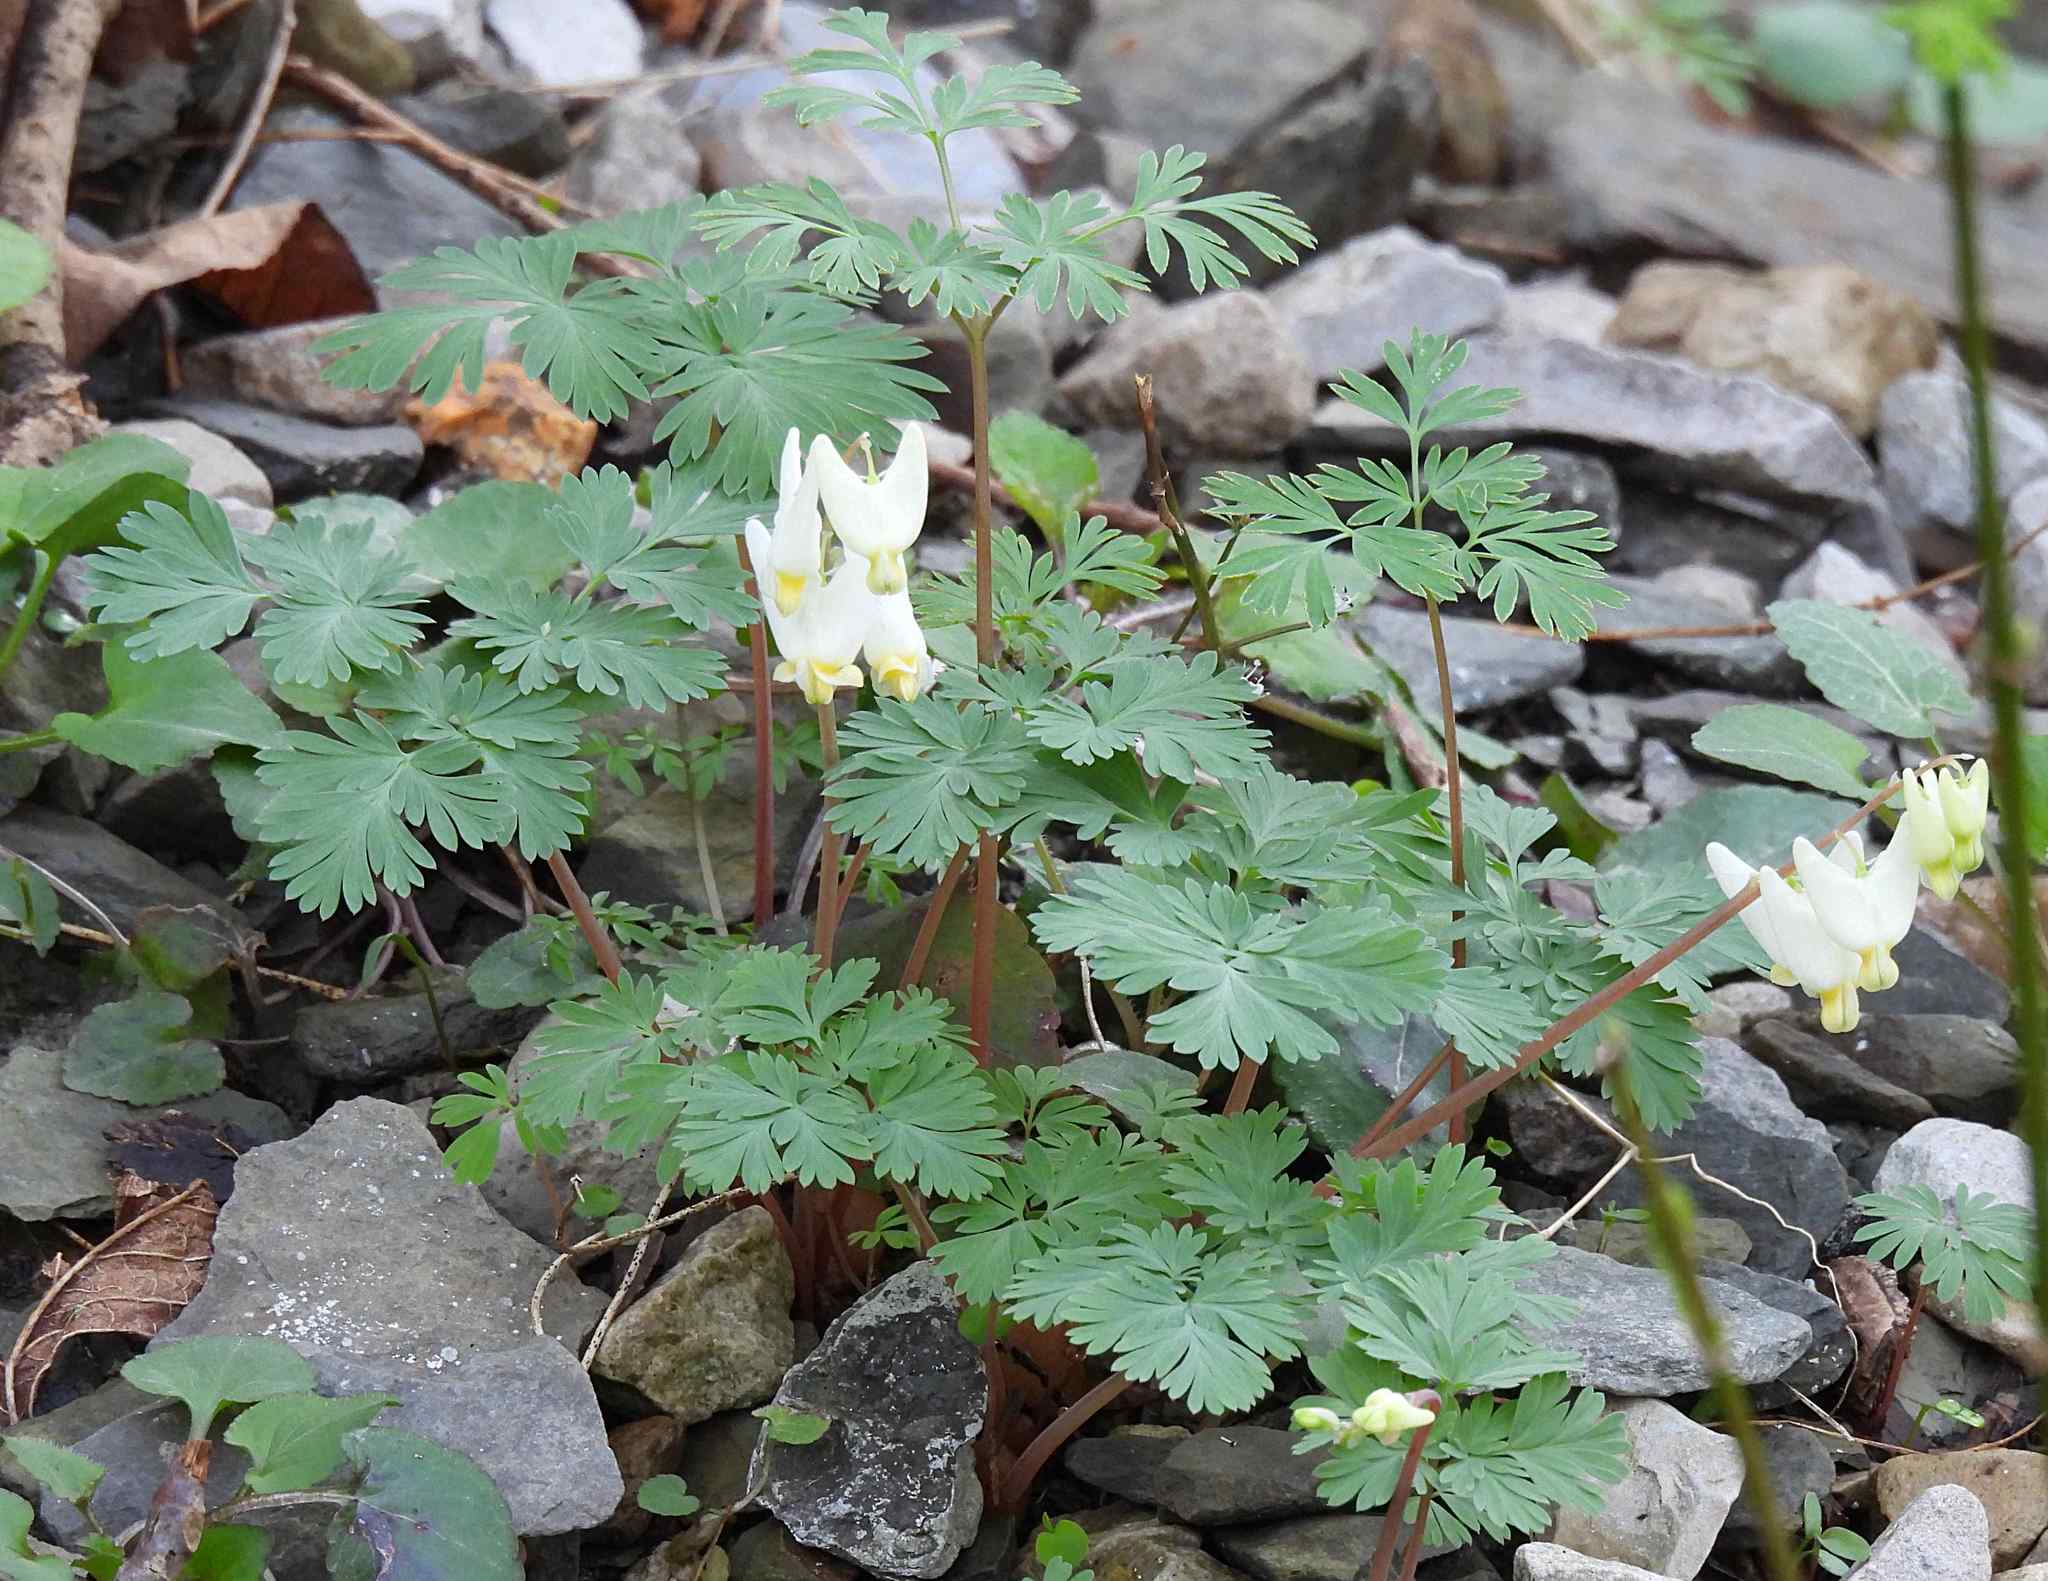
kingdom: Plantae
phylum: Tracheophyta
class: Magnoliopsida
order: Ranunculales
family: Papaveraceae
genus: Dicentra
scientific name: Dicentra cucullaria
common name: Dutchman's breeches
